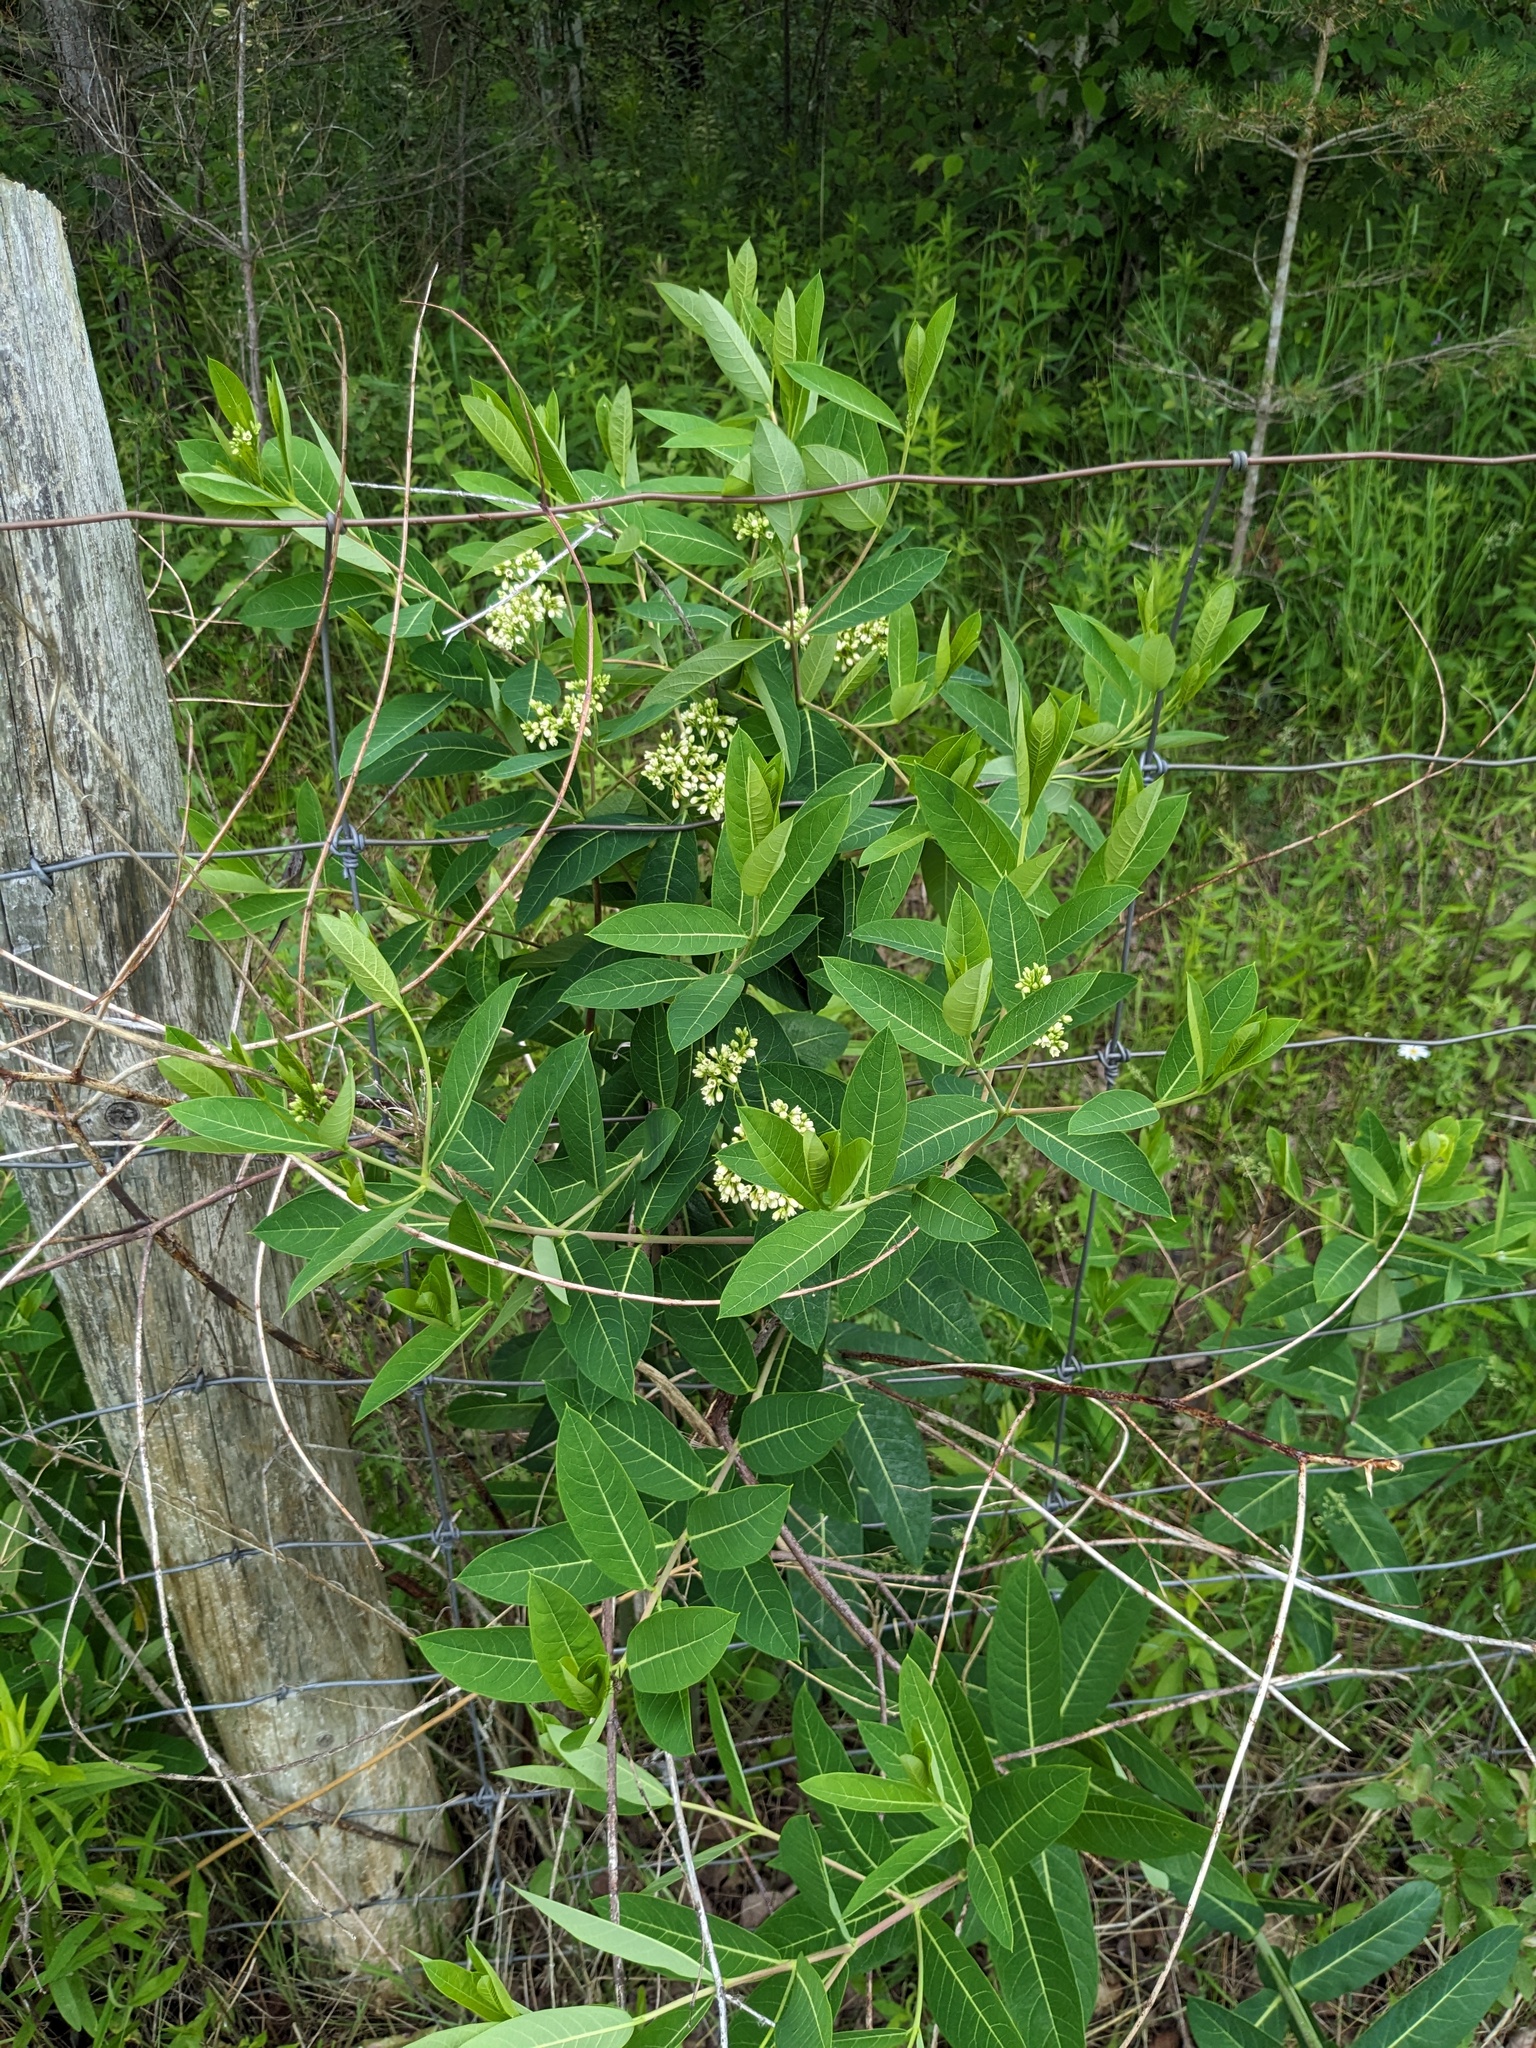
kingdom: Plantae
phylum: Tracheophyta
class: Magnoliopsida
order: Gentianales
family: Apocynaceae
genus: Apocynum
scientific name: Apocynum cannabinum
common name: Hemp dogbane
